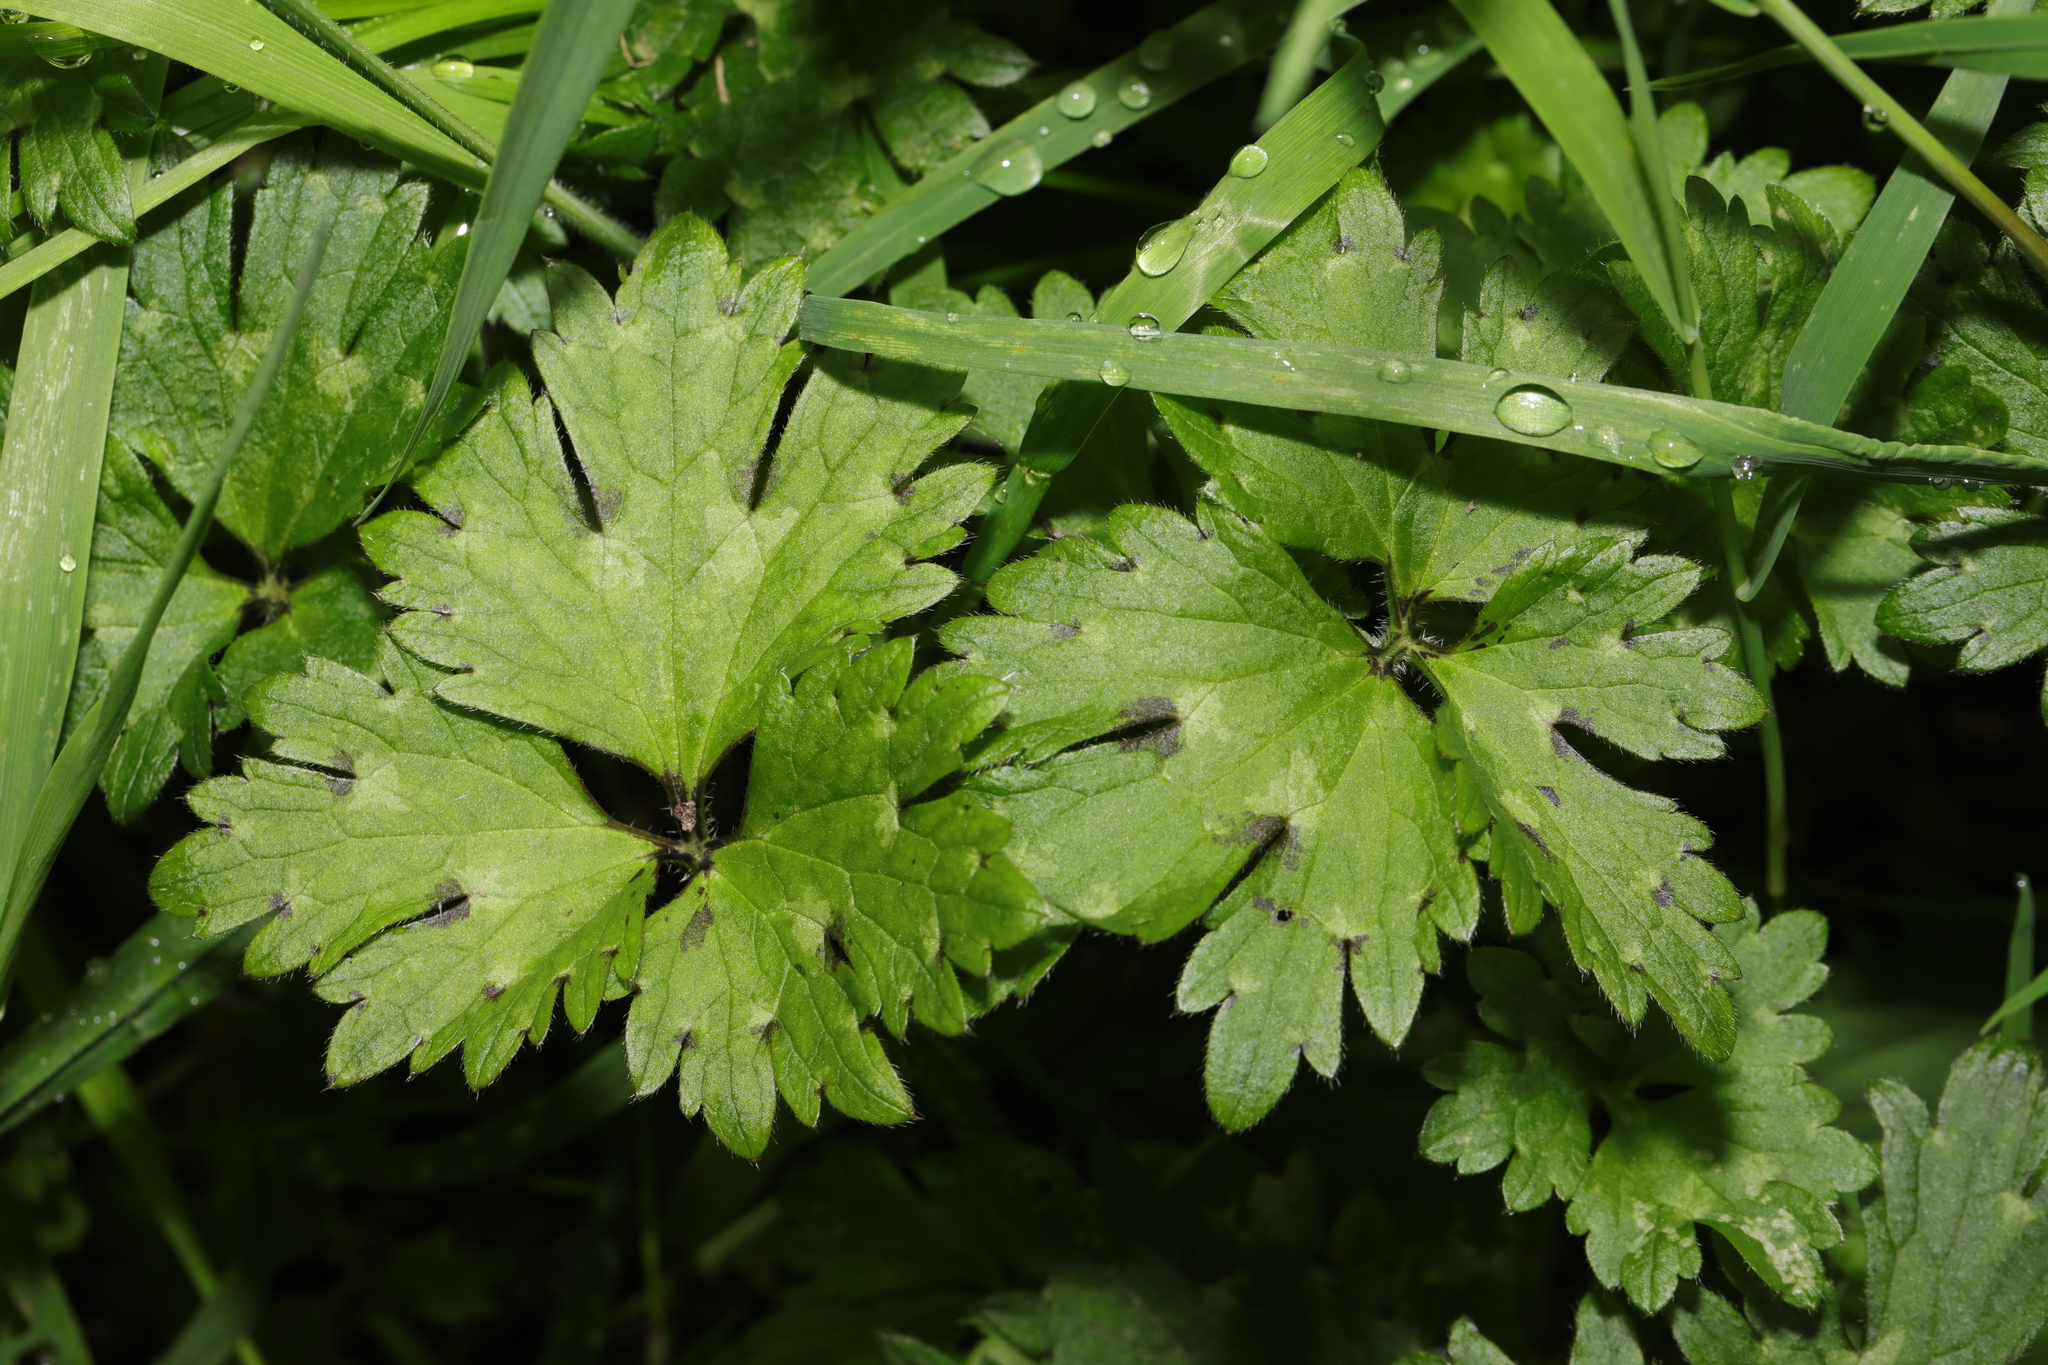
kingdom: Plantae
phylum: Tracheophyta
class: Magnoliopsida
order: Ranunculales
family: Ranunculaceae
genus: Ranunculus
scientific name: Ranunculus repens
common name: Creeping buttercup
